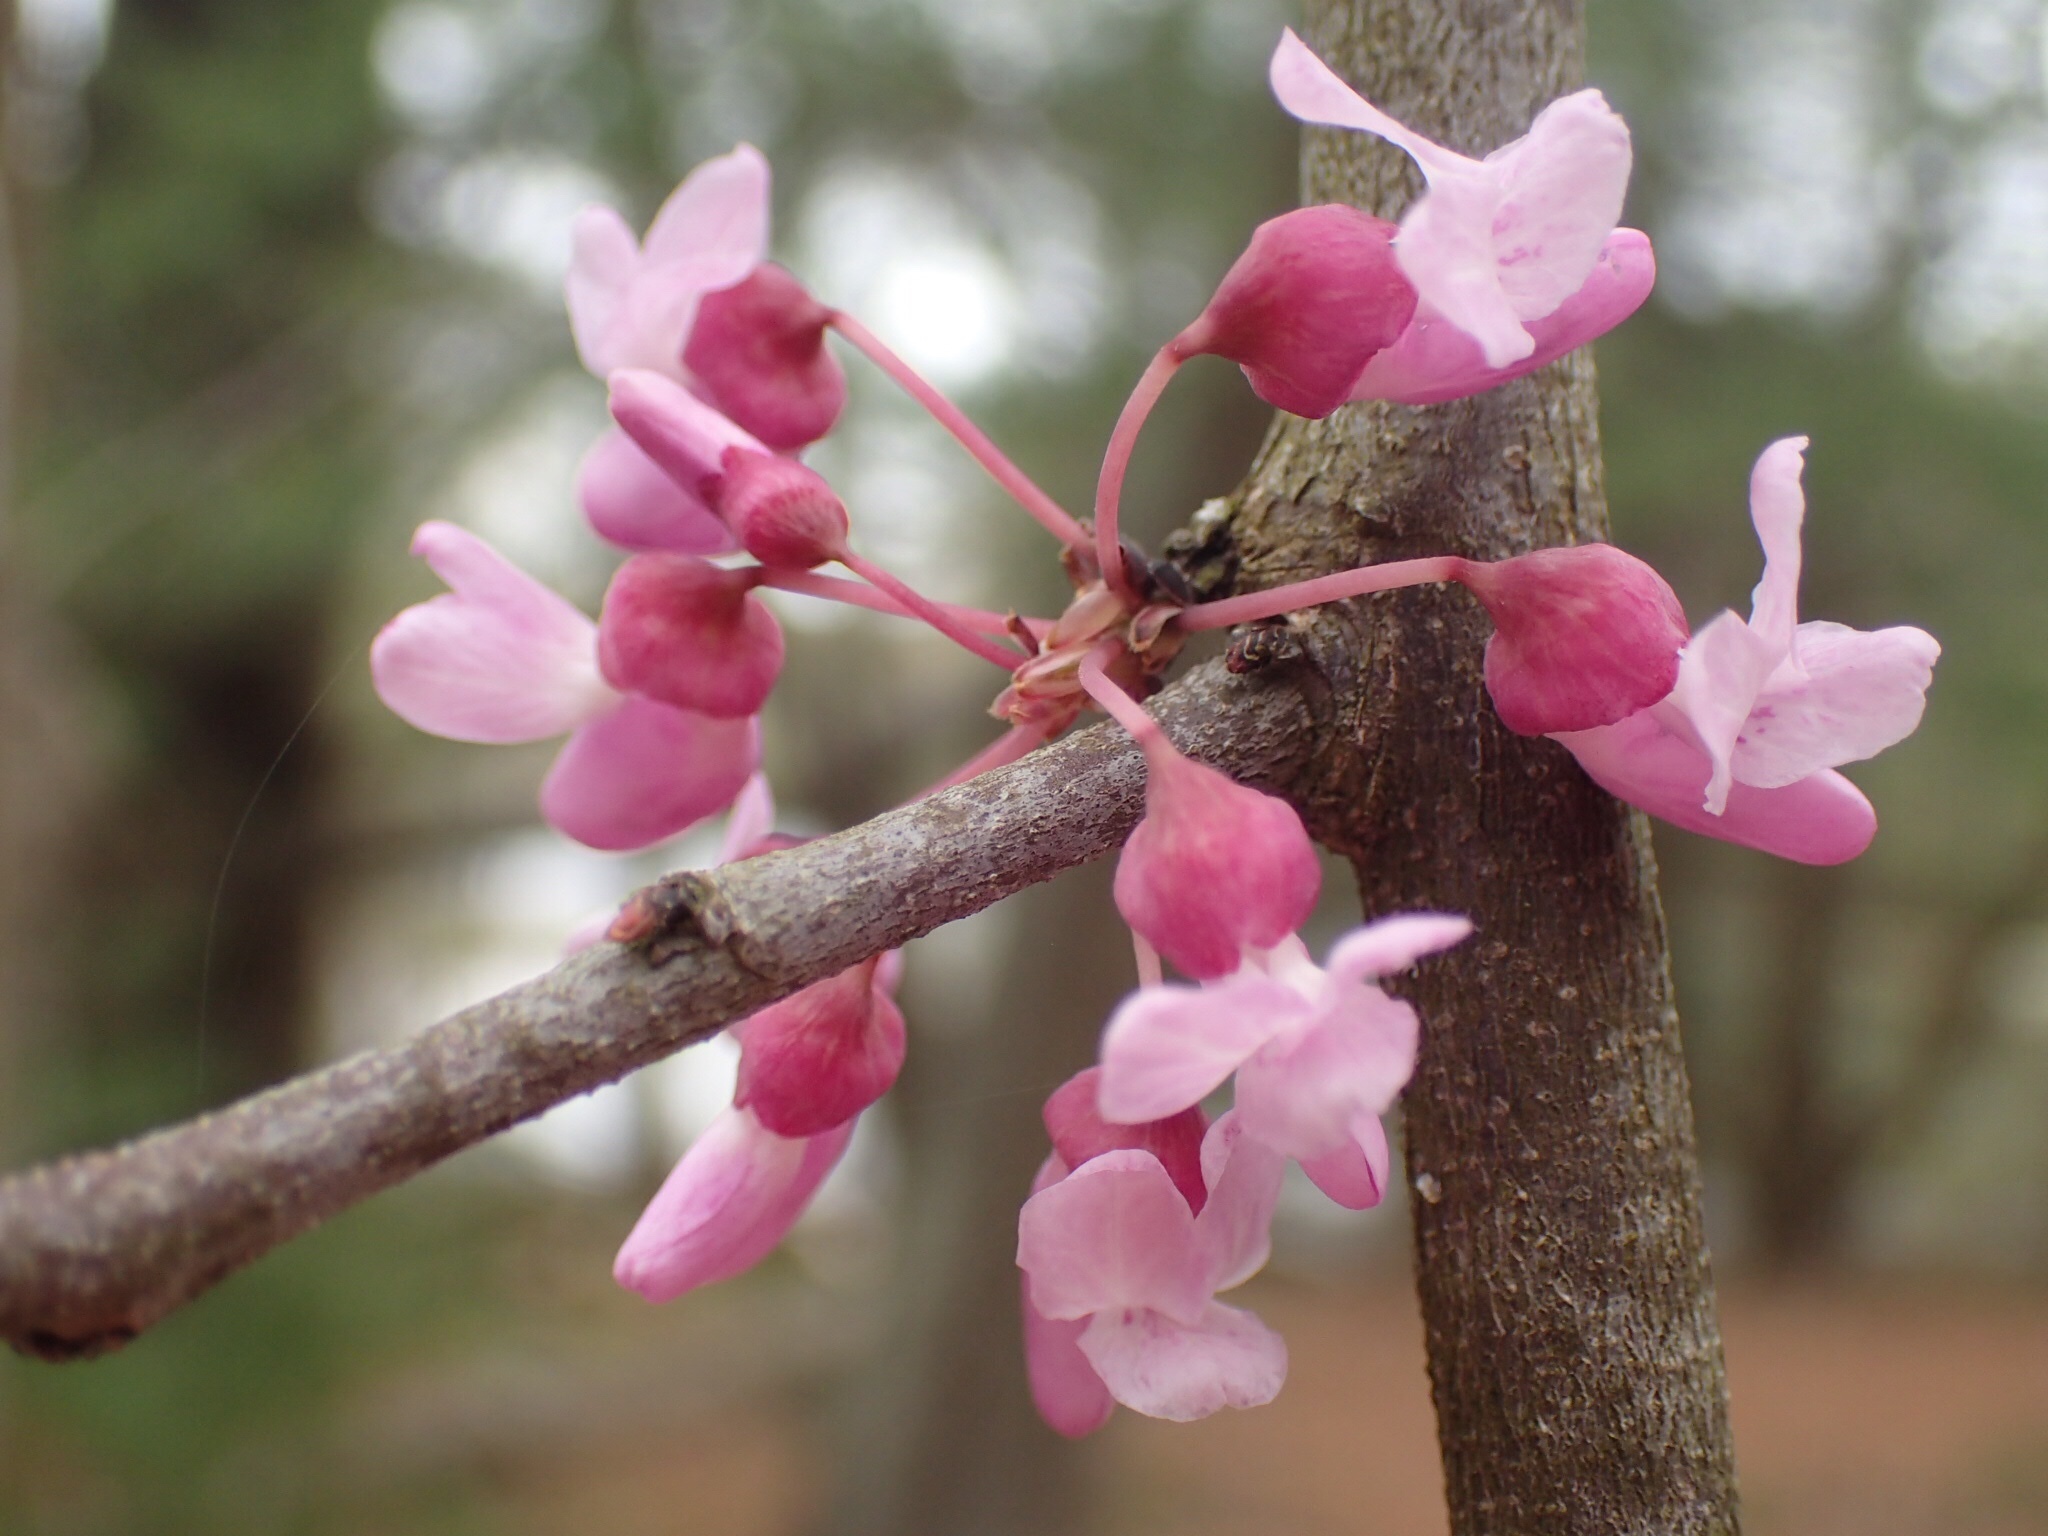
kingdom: Plantae
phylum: Tracheophyta
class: Magnoliopsida
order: Fabales
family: Fabaceae
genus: Cercis
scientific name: Cercis canadensis
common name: Eastern redbud
